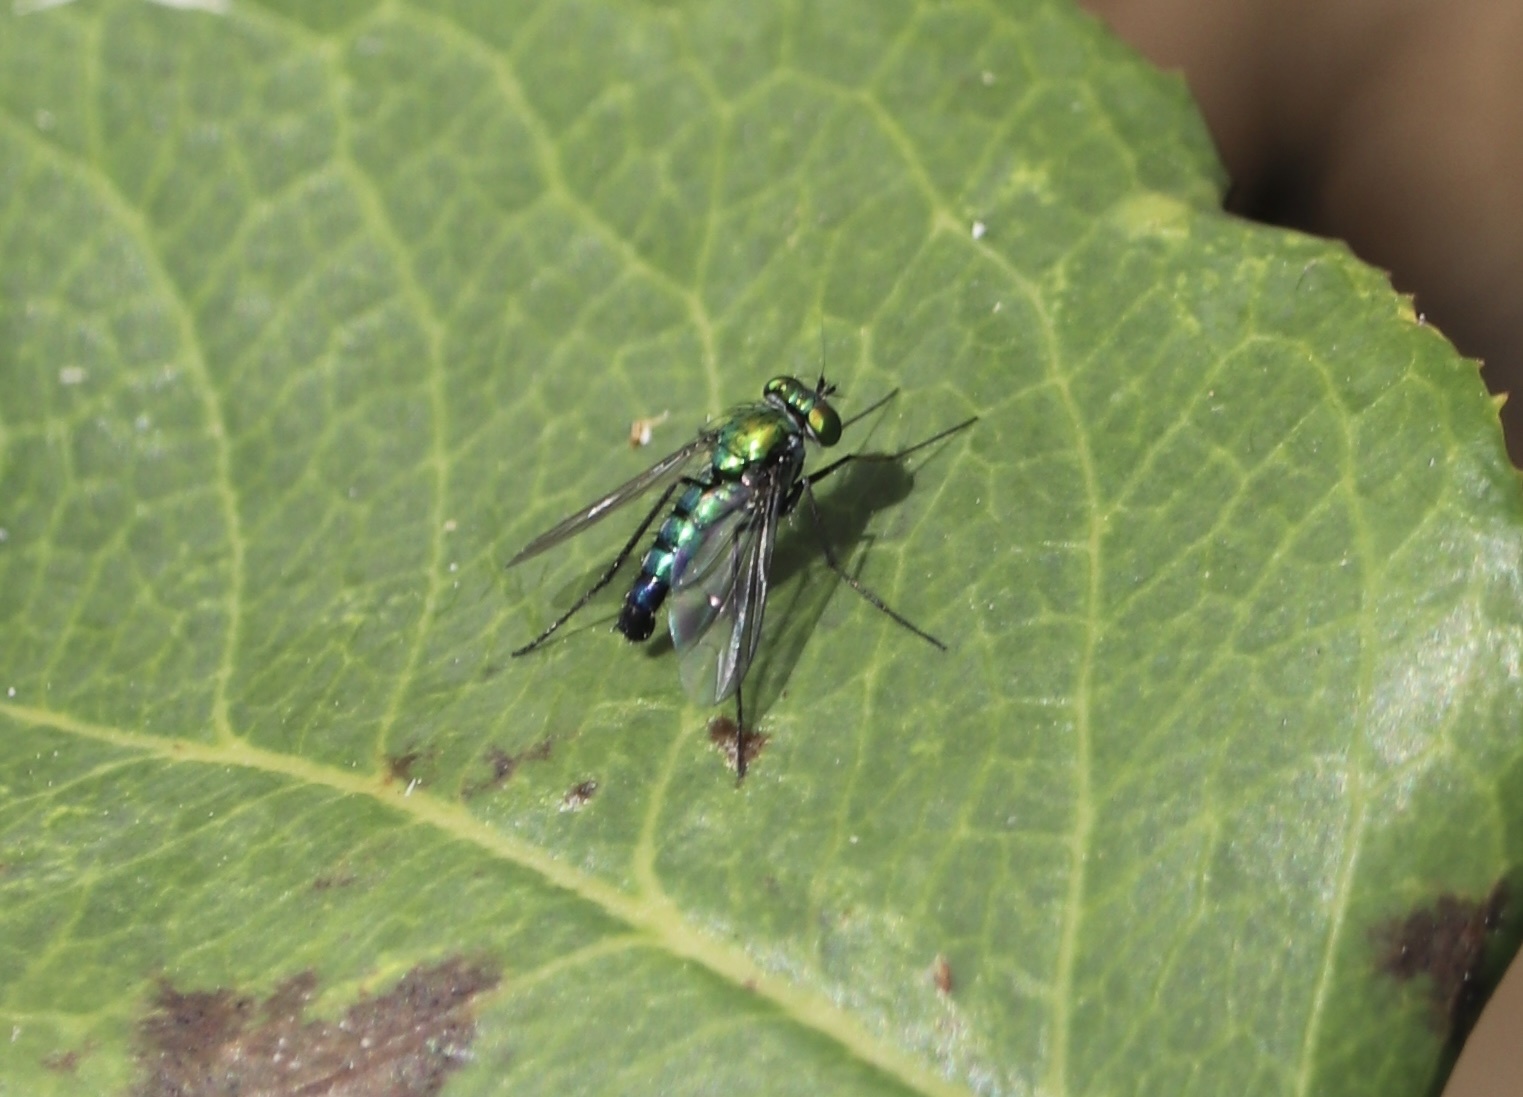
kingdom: Animalia
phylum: Arthropoda
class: Insecta
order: Diptera
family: Dolichopodidae
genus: Condylostylus
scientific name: Condylostylus longicornis
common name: Long-legged fly
